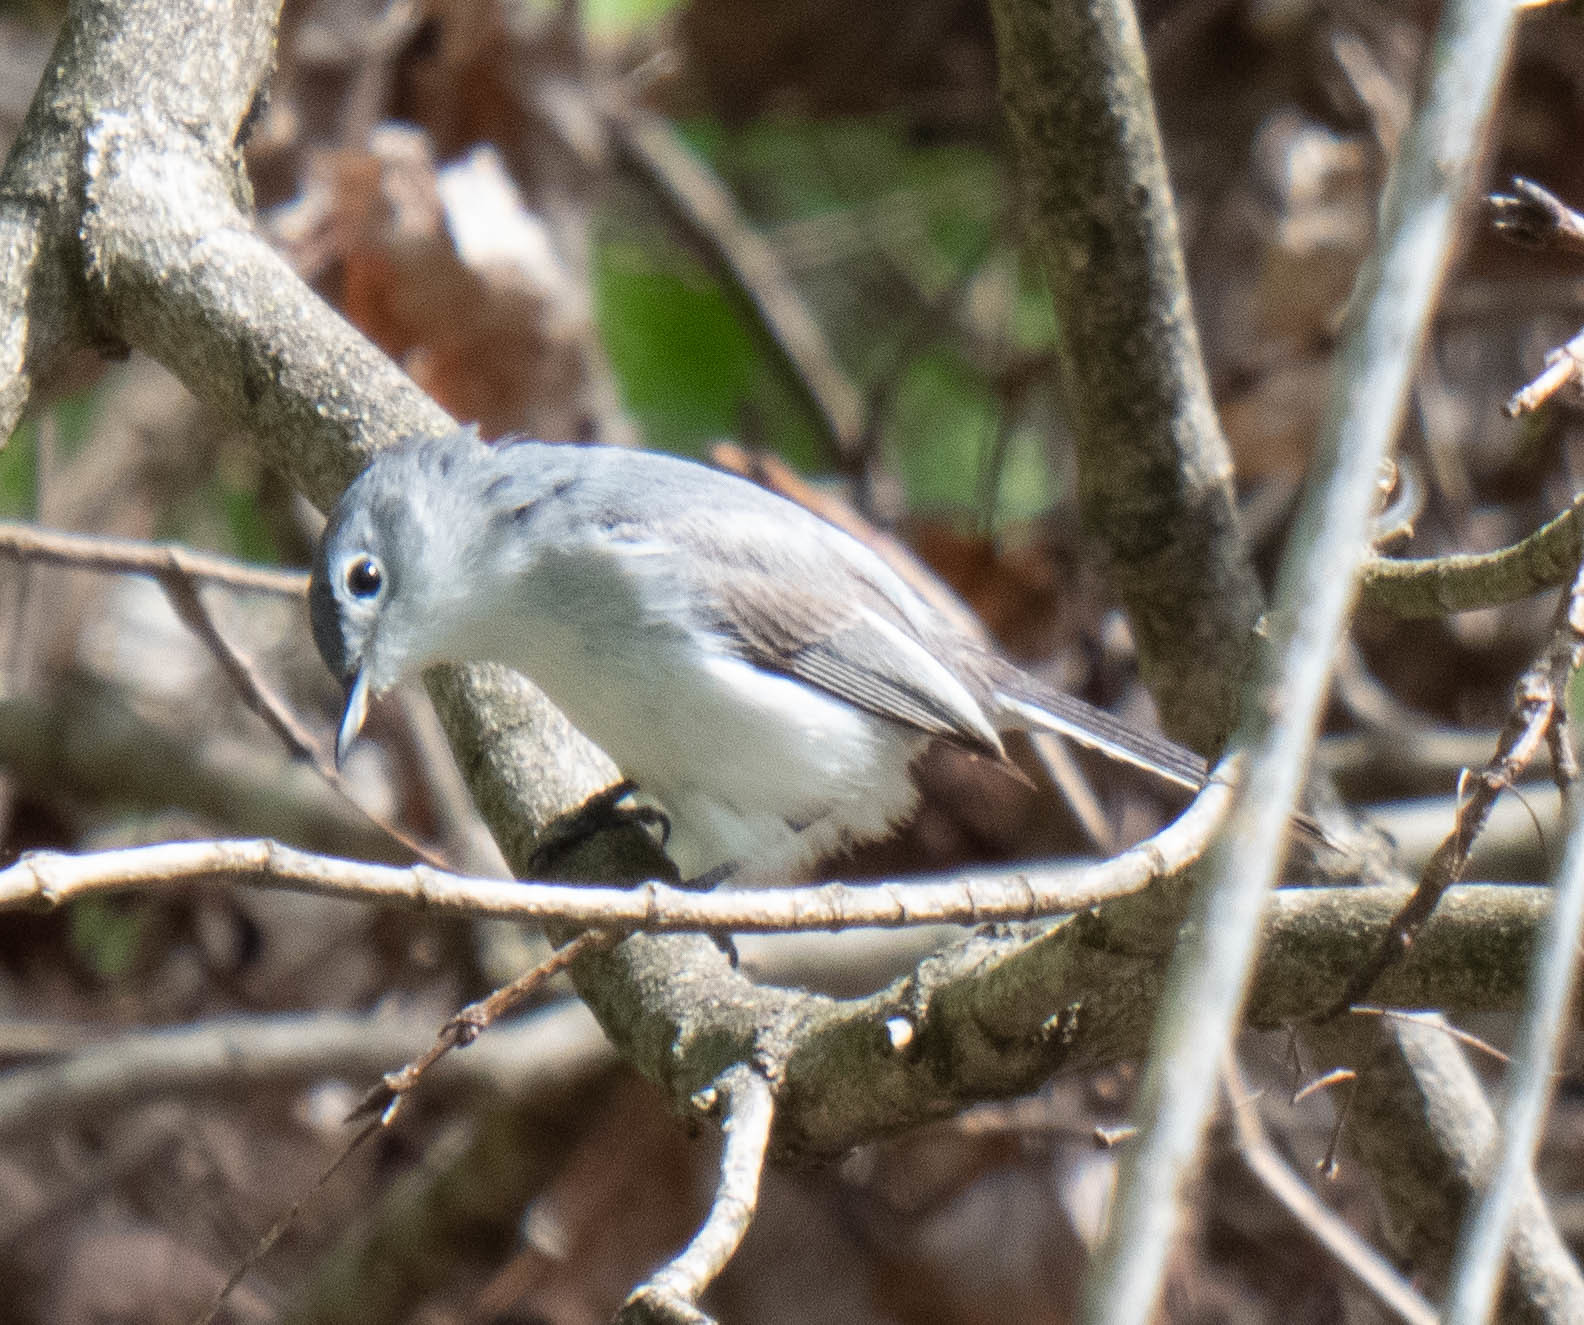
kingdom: Animalia
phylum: Chordata
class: Aves
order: Passeriformes
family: Polioptilidae
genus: Polioptila
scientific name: Polioptila caerulea
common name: Blue-gray gnatcatcher
